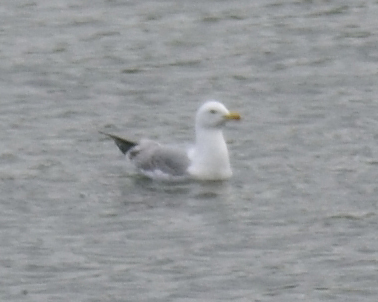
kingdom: Animalia
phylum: Chordata
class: Aves
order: Charadriiformes
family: Laridae
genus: Larus
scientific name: Larus argentatus
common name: Herring gull
